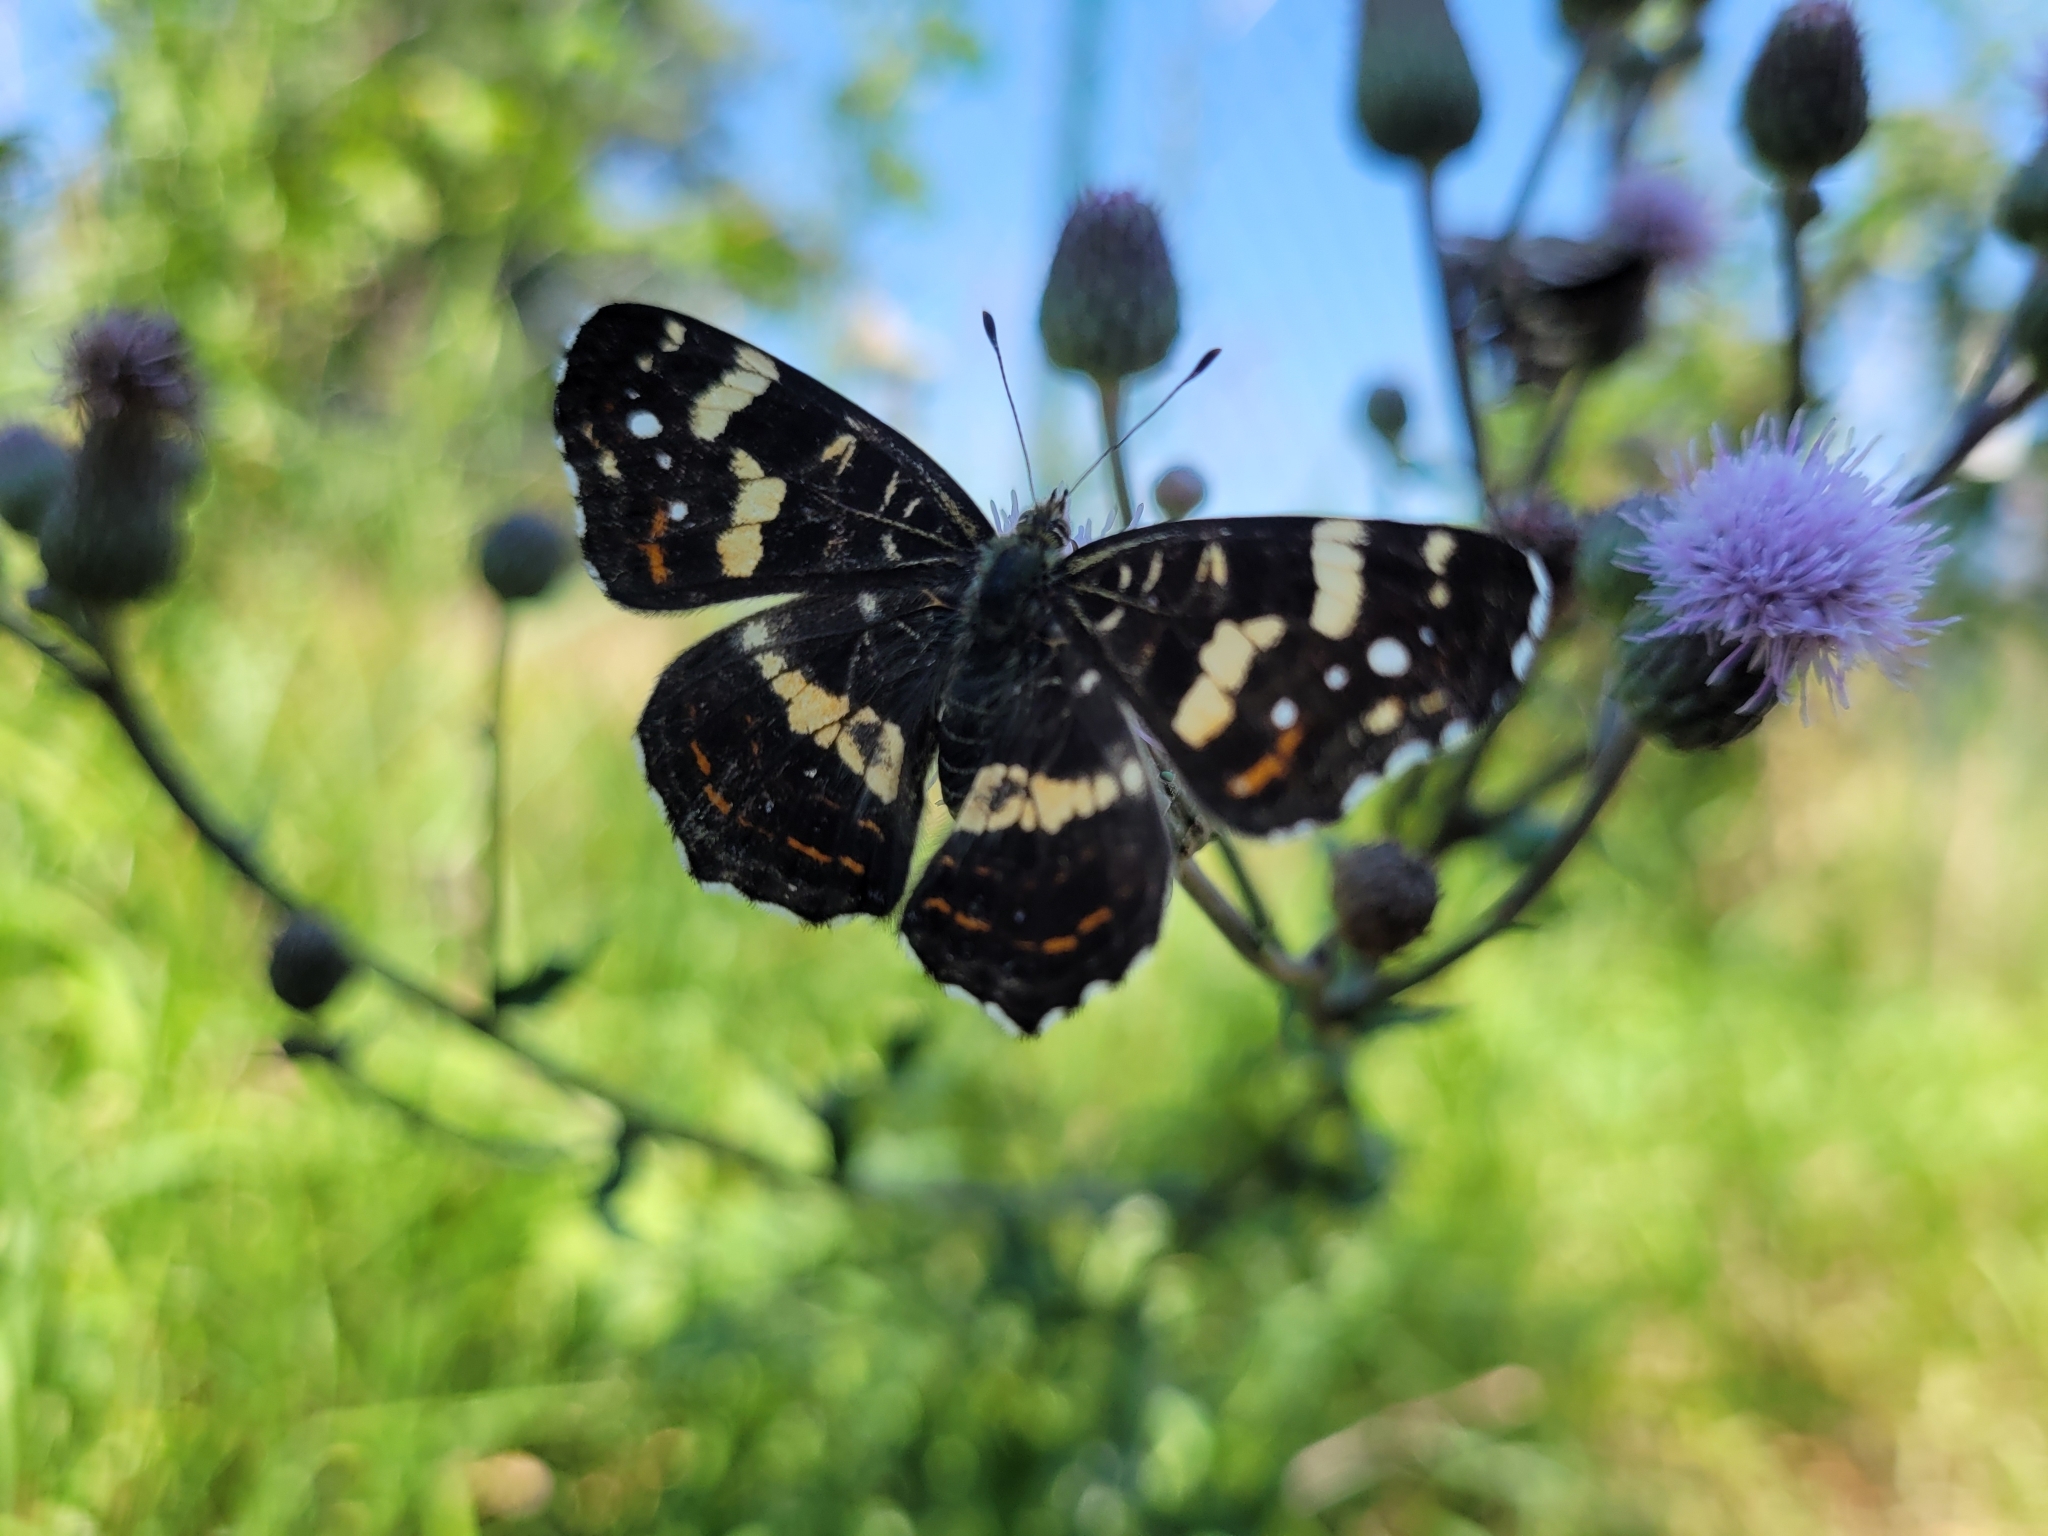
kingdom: Animalia
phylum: Arthropoda
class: Insecta
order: Lepidoptera
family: Nymphalidae
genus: Araschnia
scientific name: Araschnia levana
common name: Map butterfly
